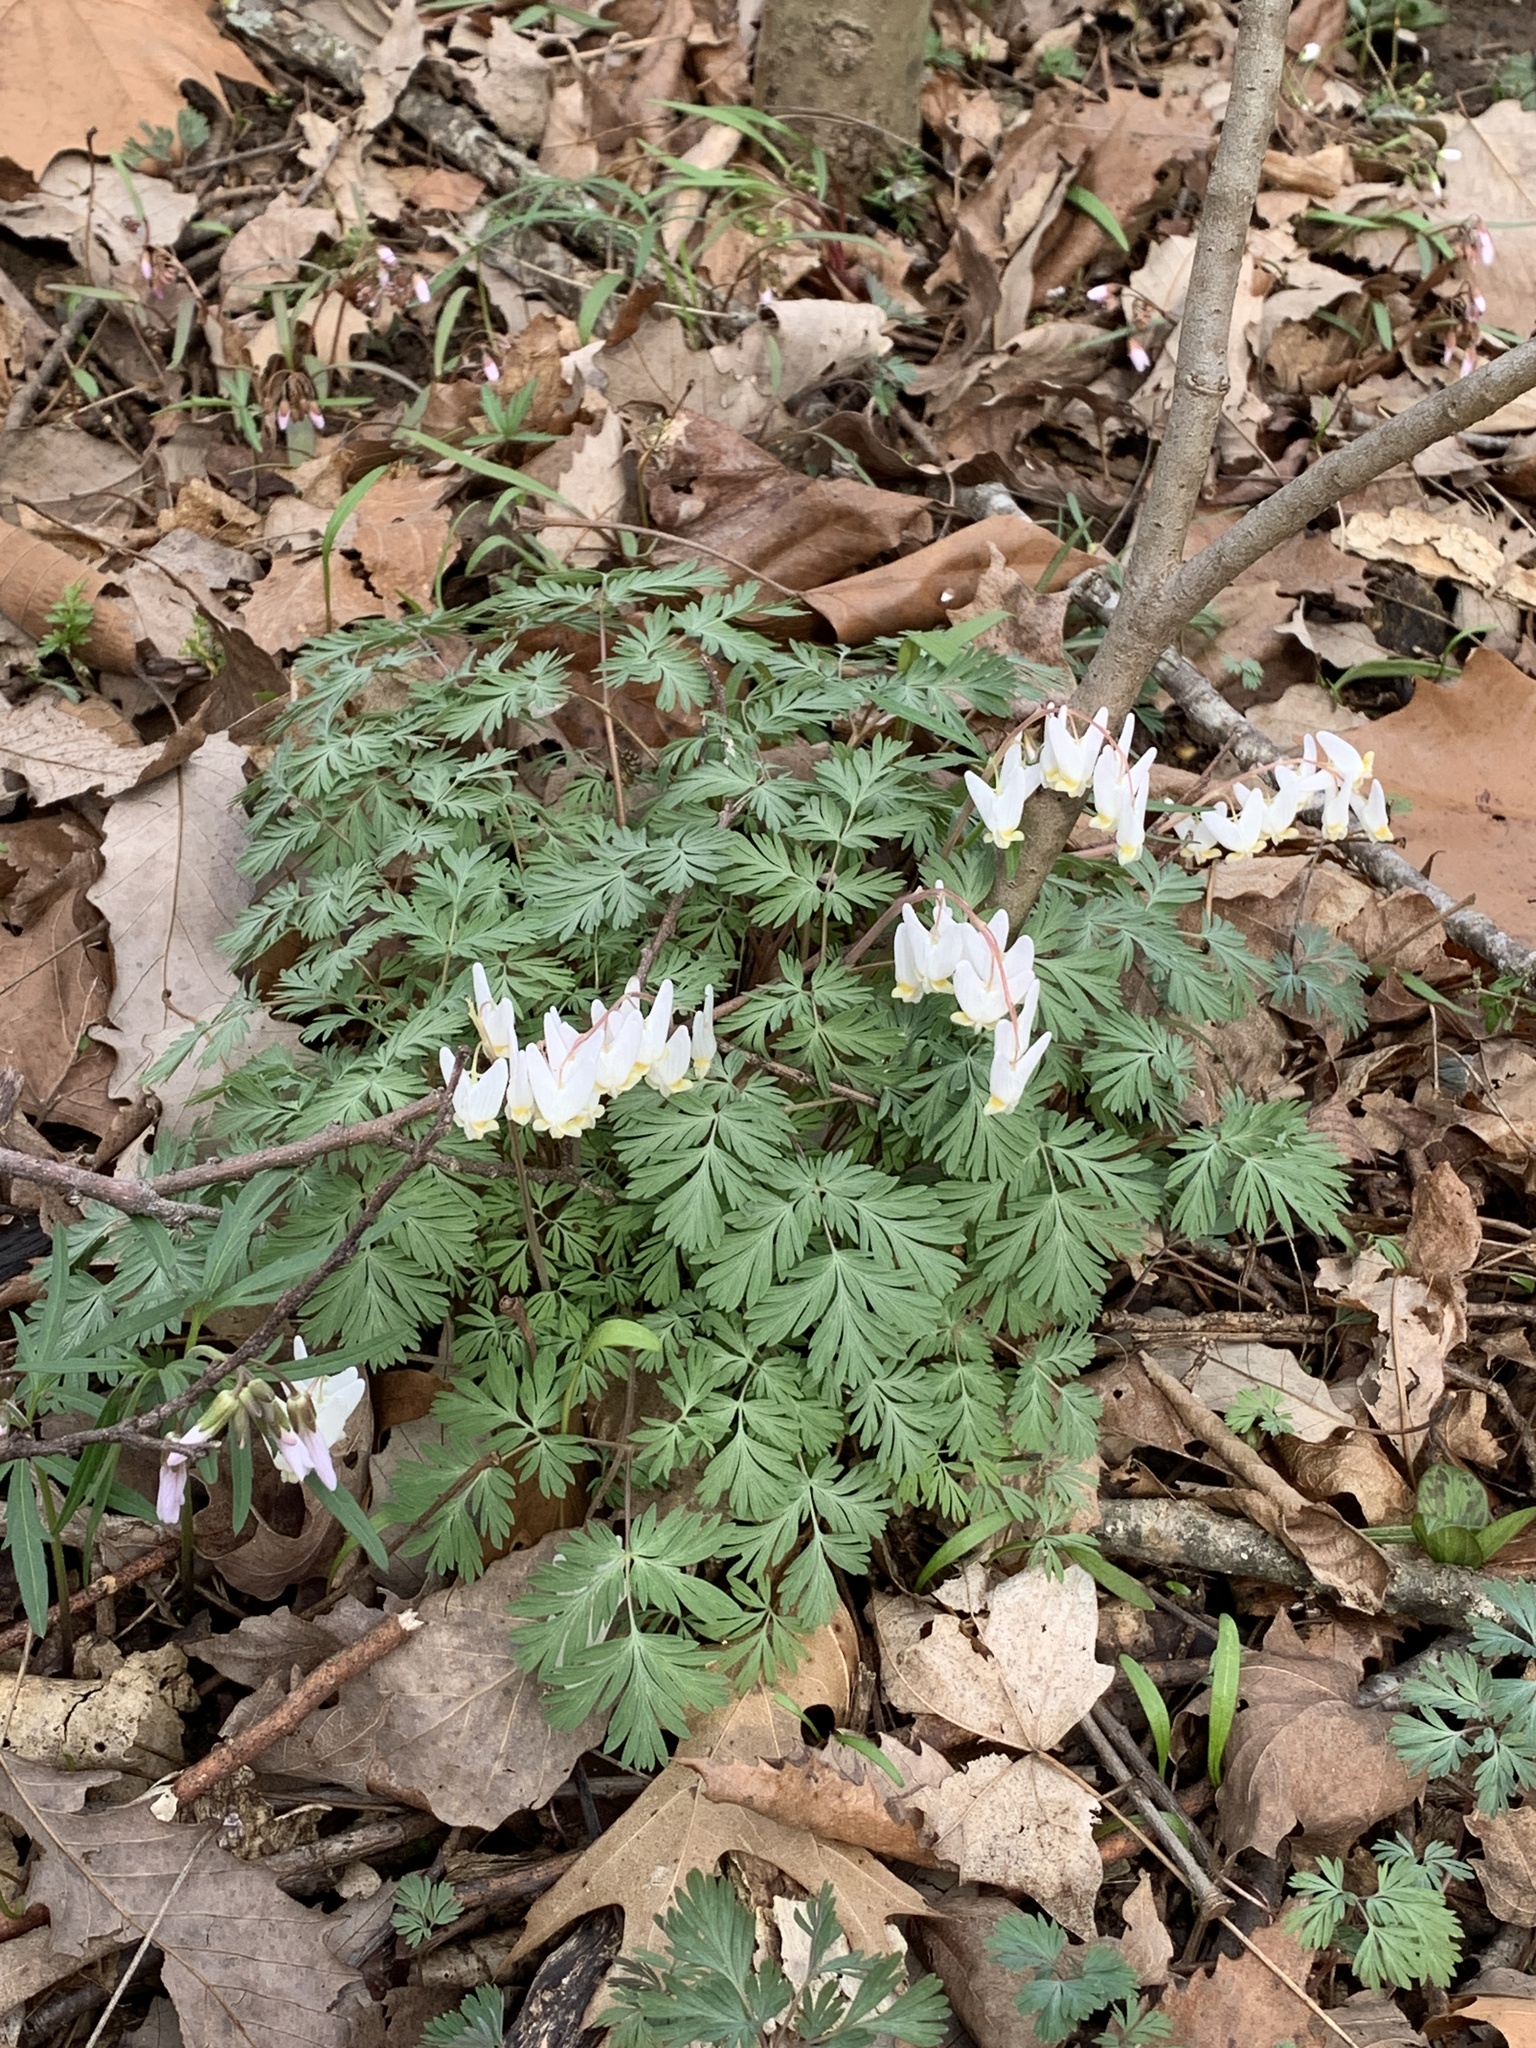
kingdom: Plantae
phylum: Tracheophyta
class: Magnoliopsida
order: Ranunculales
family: Papaveraceae
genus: Dicentra
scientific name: Dicentra cucullaria
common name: Dutchman's breeches
